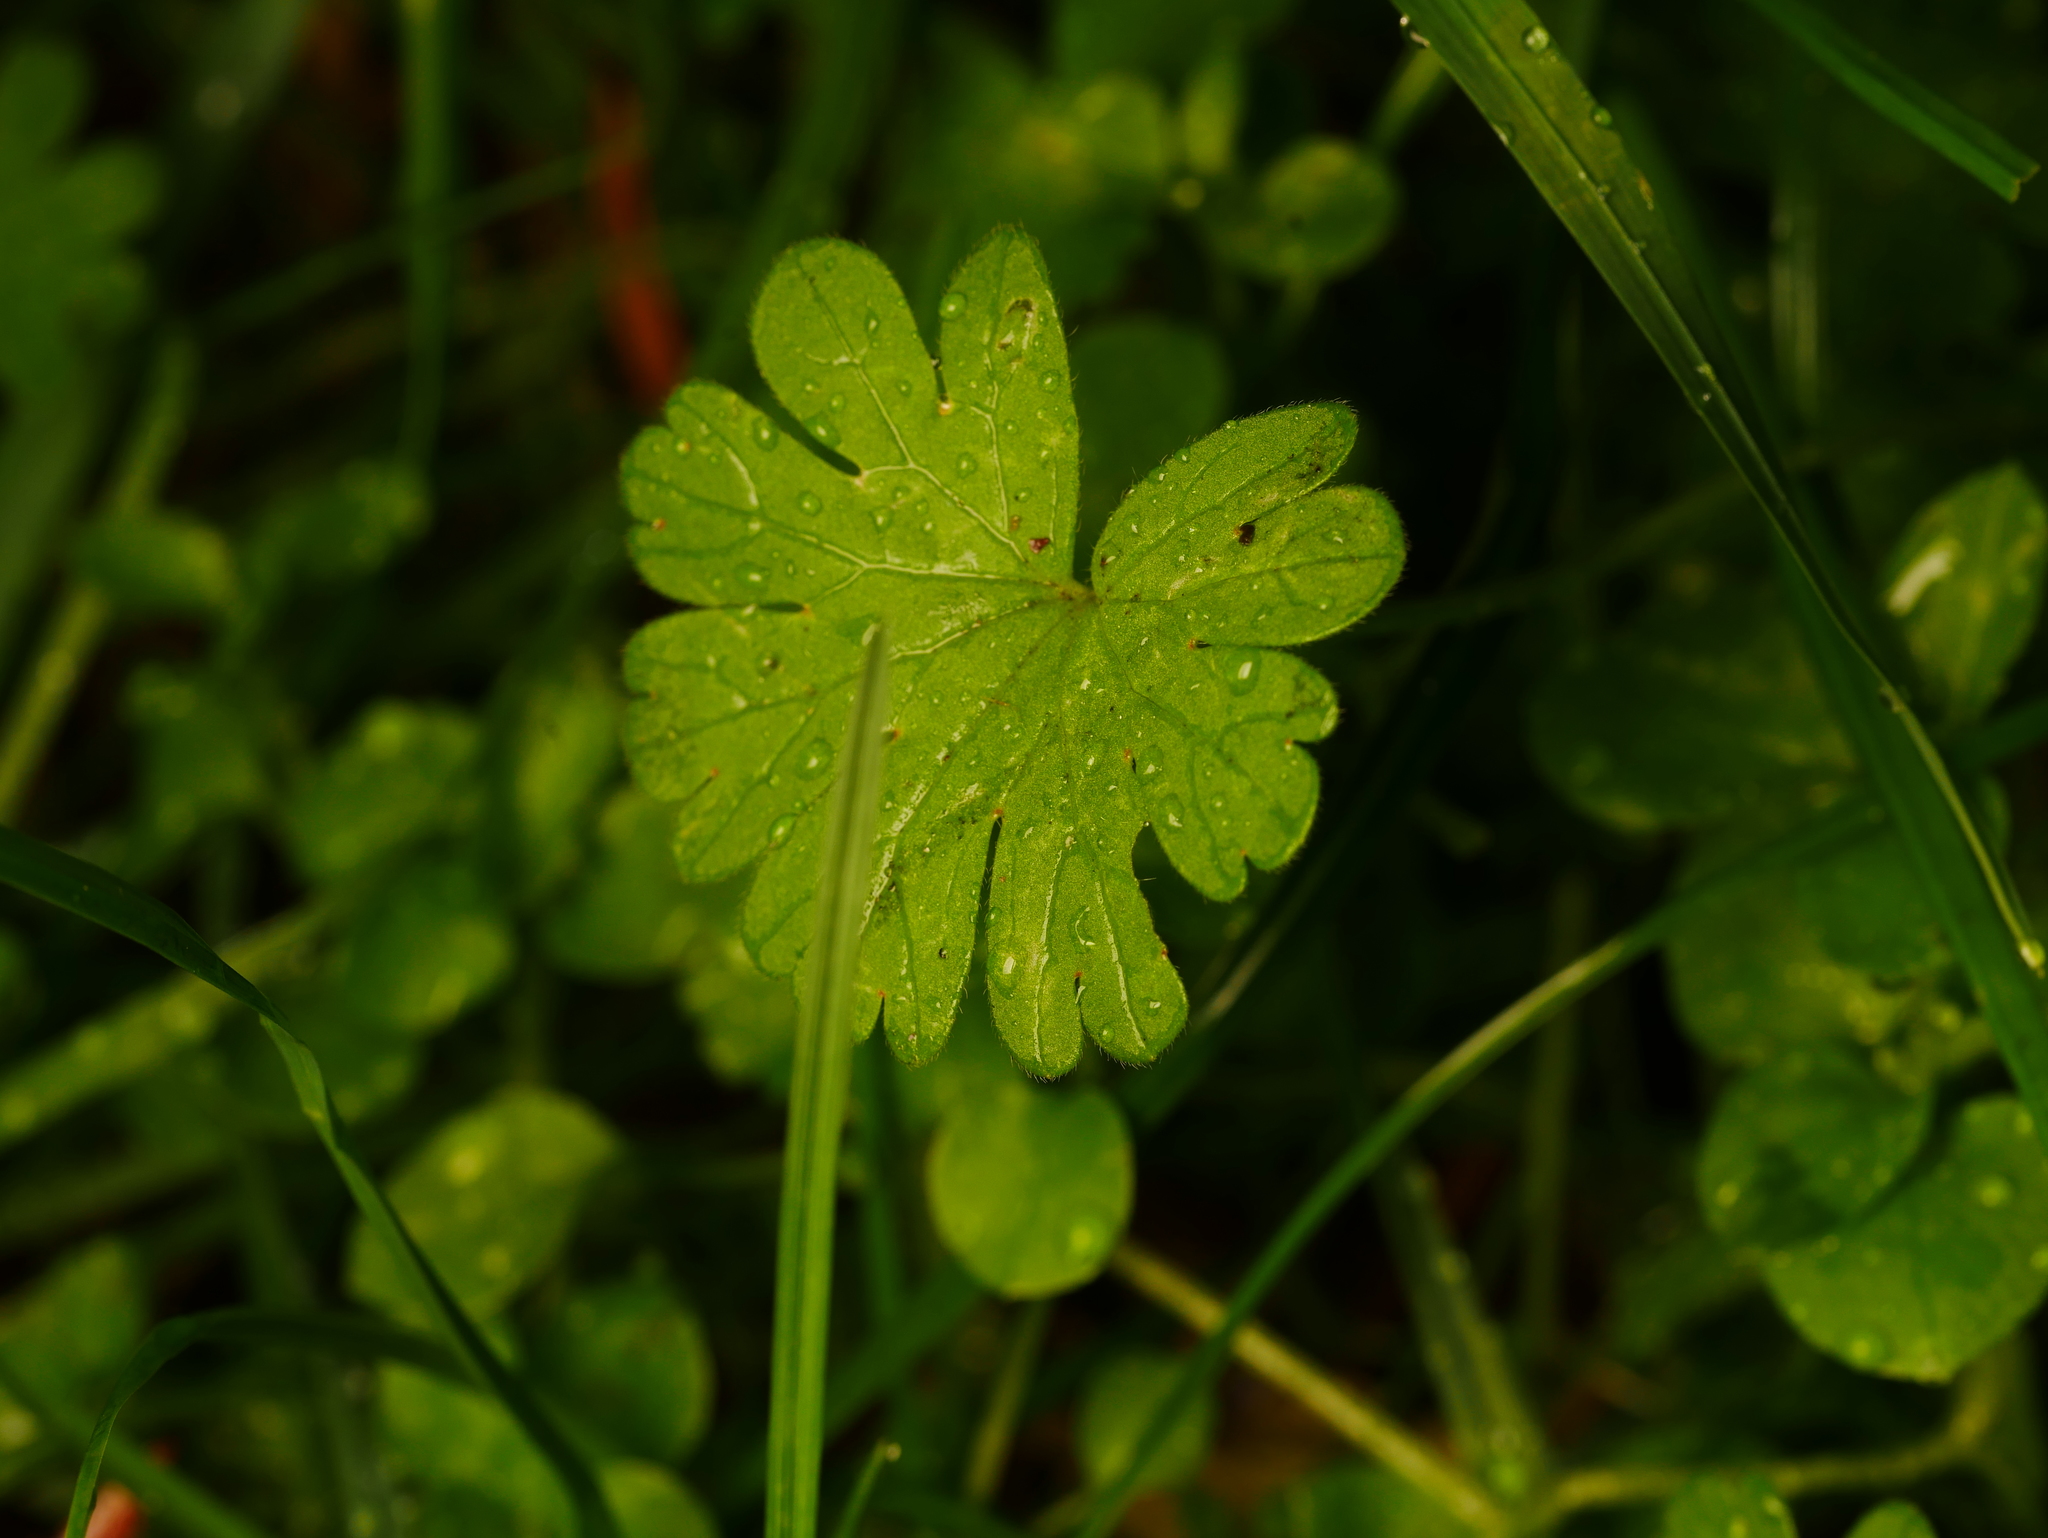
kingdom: Plantae
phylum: Tracheophyta
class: Magnoliopsida
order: Geraniales
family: Geraniaceae
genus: Geranium
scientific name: Geranium molle
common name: Dove's-foot crane's-bill
